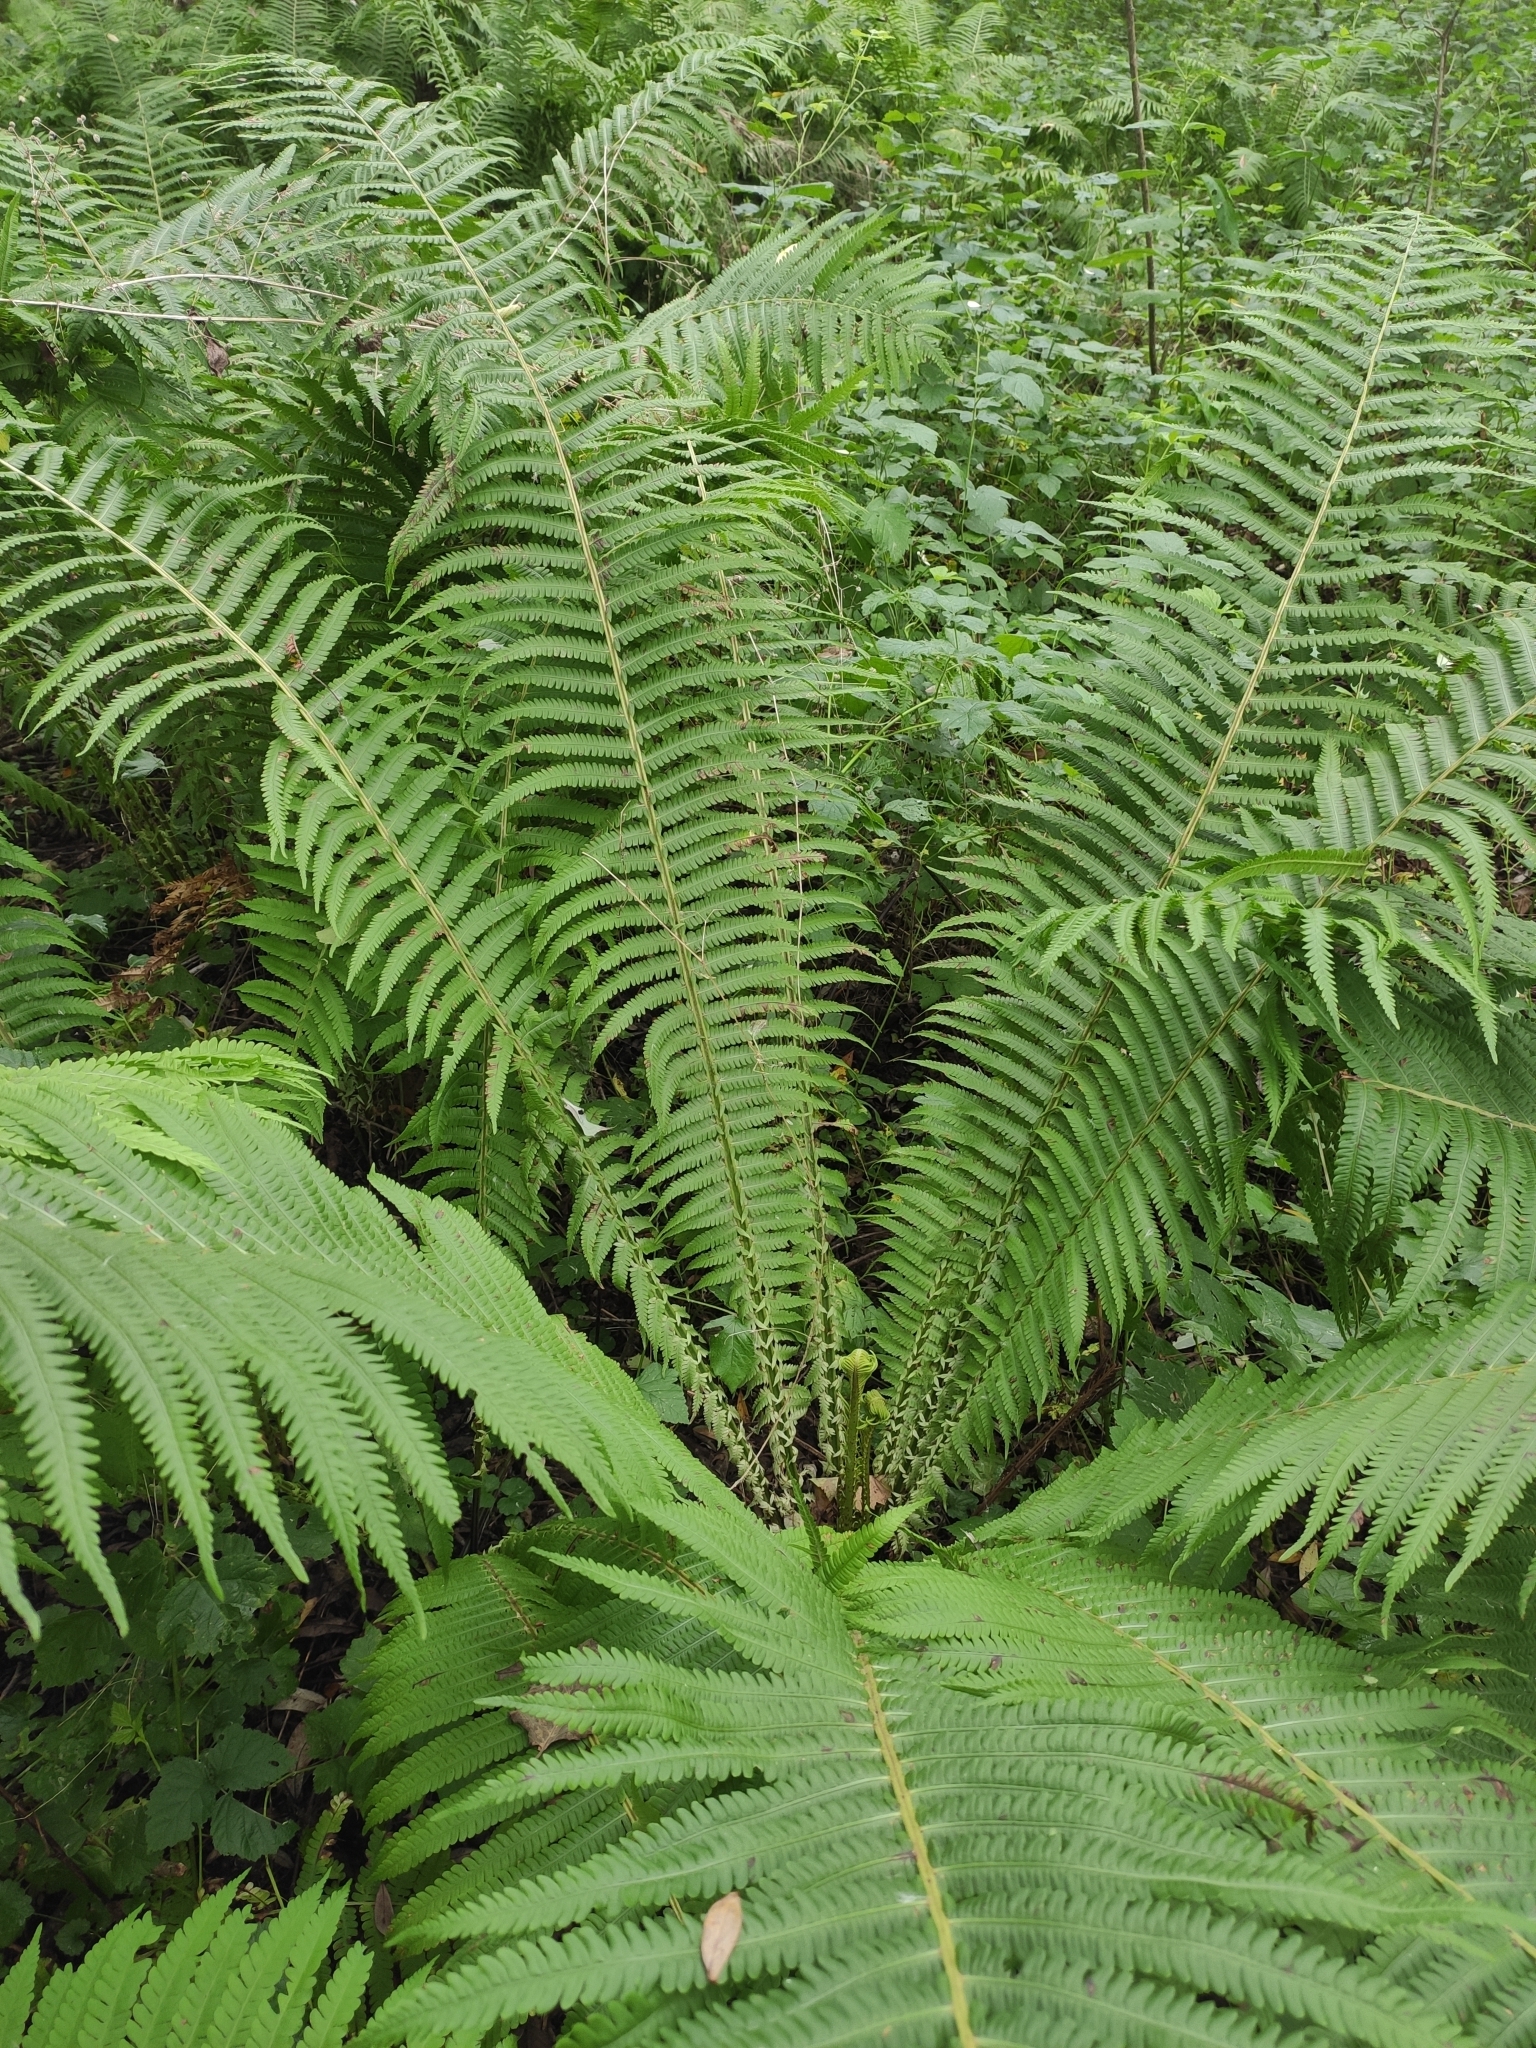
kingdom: Plantae
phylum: Tracheophyta
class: Polypodiopsida
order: Polypodiales
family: Onocleaceae
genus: Matteuccia
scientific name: Matteuccia struthiopteris
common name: Ostrich fern
